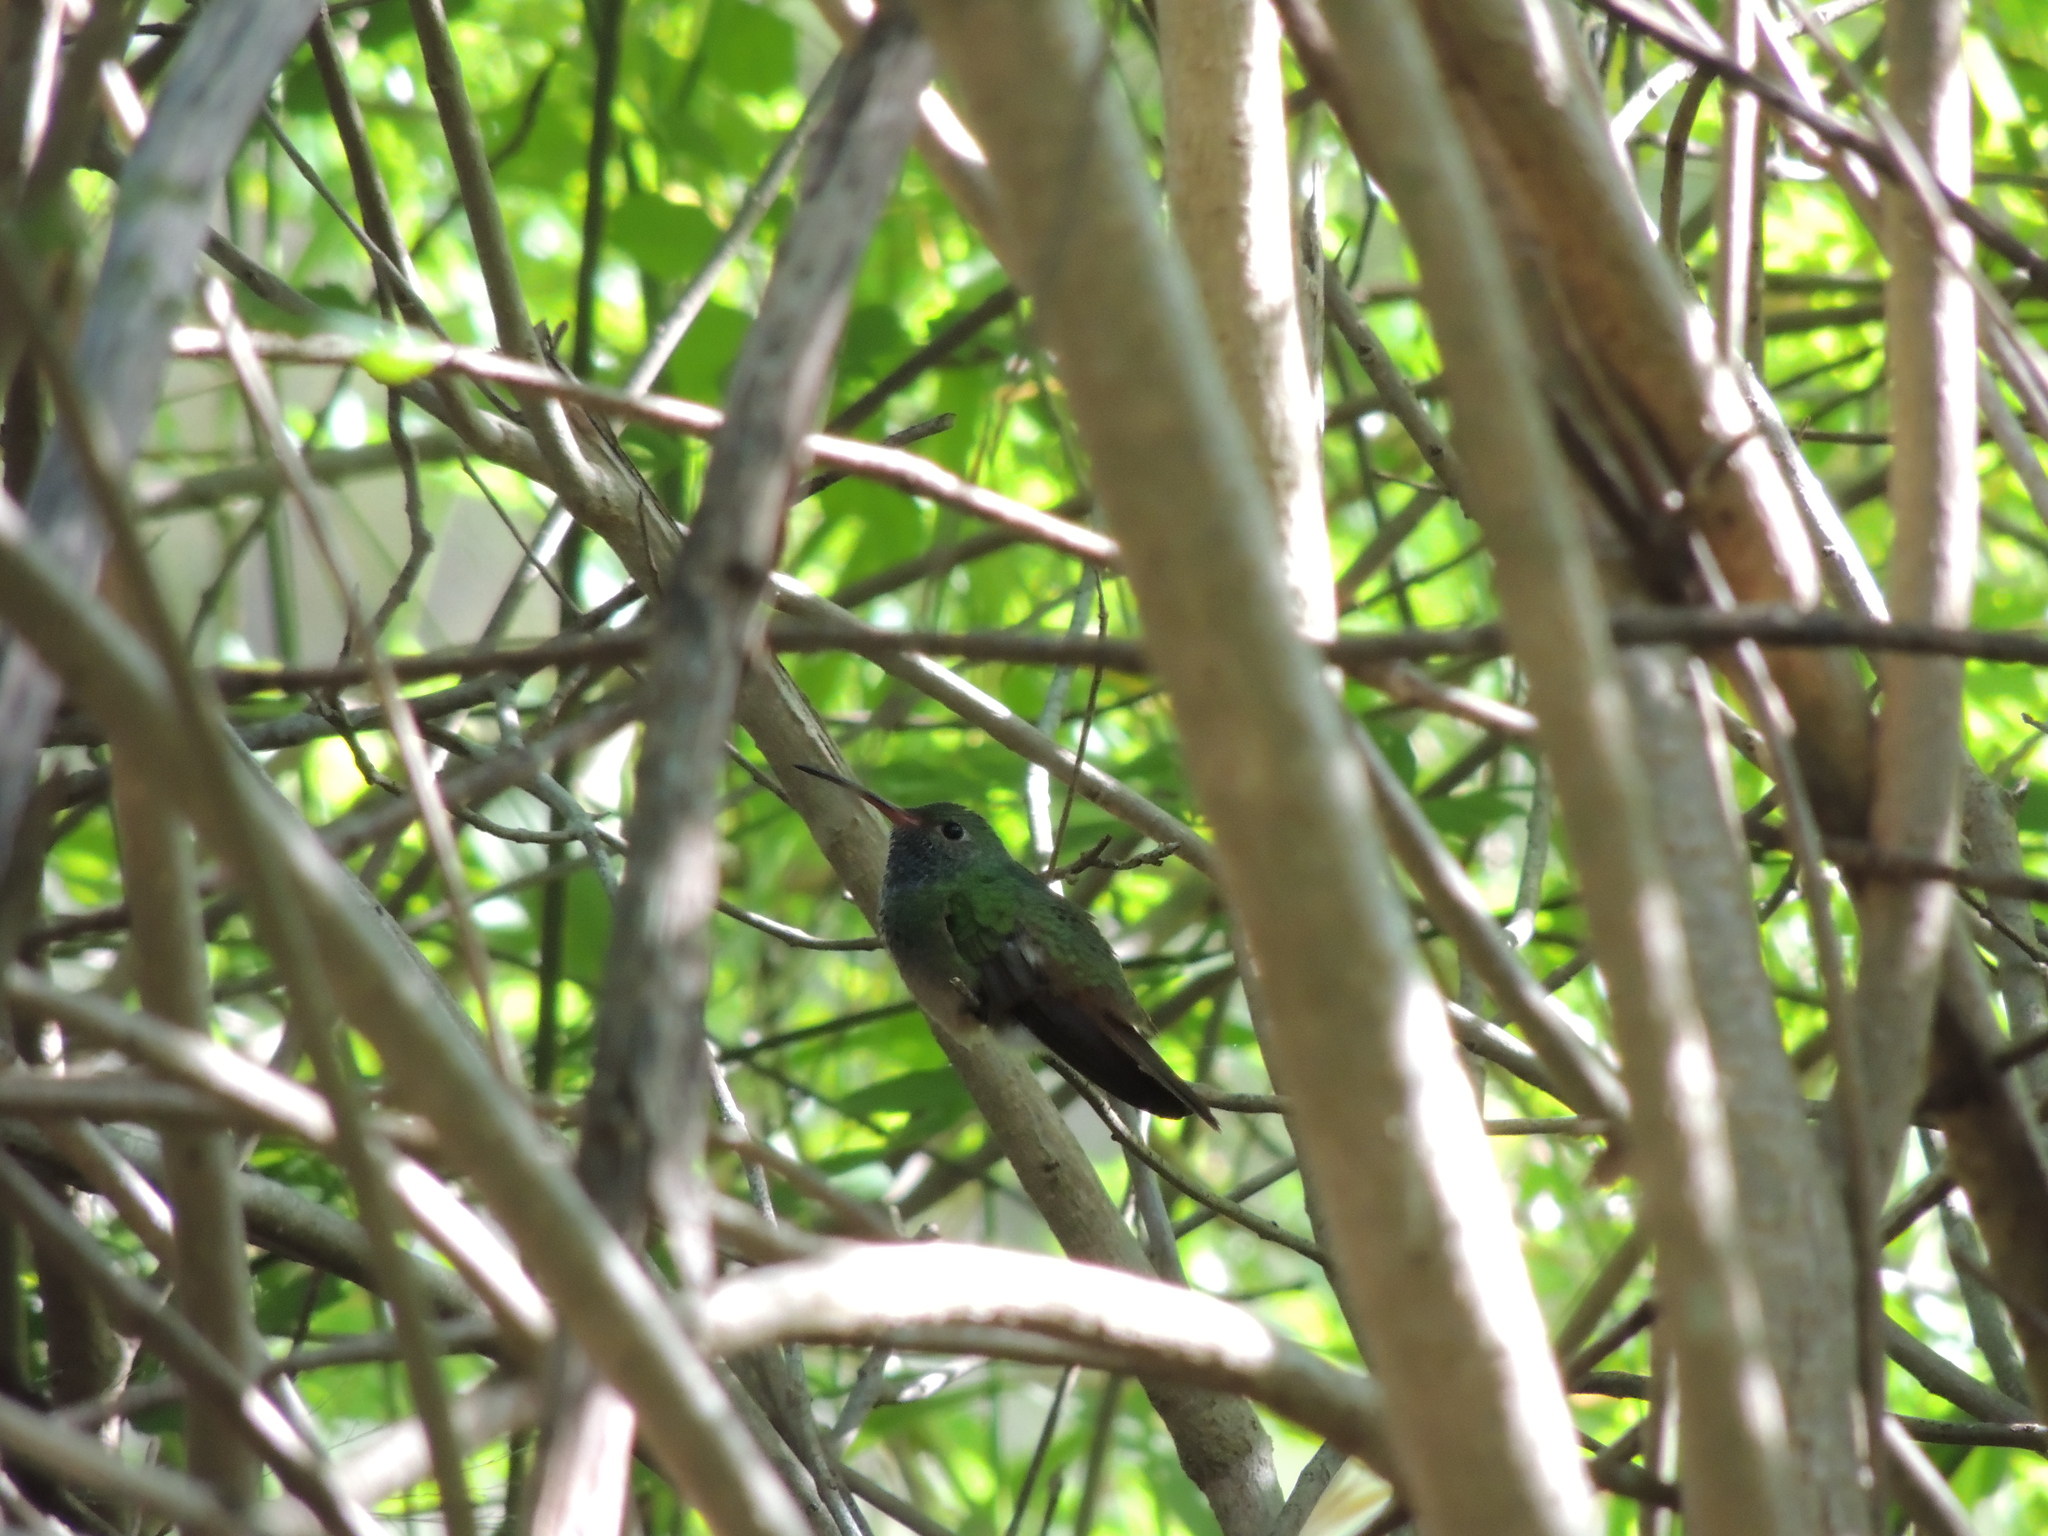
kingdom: Animalia
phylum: Chordata
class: Aves
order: Apodiformes
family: Trochilidae
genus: Amazilia
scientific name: Amazilia yucatanensis
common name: Buff-bellied hummingbird
